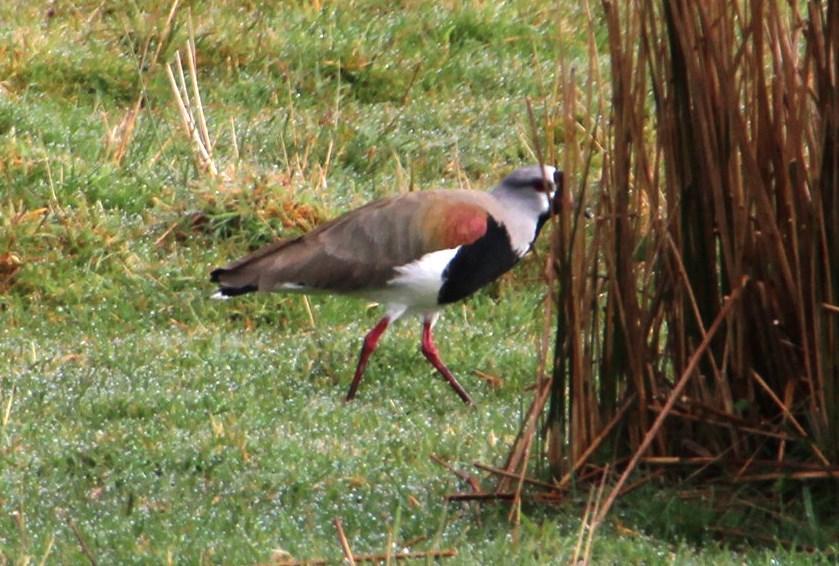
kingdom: Animalia
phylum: Chordata
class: Aves
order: Charadriiformes
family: Charadriidae
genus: Vanellus
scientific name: Vanellus chilensis
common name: Southern lapwing
